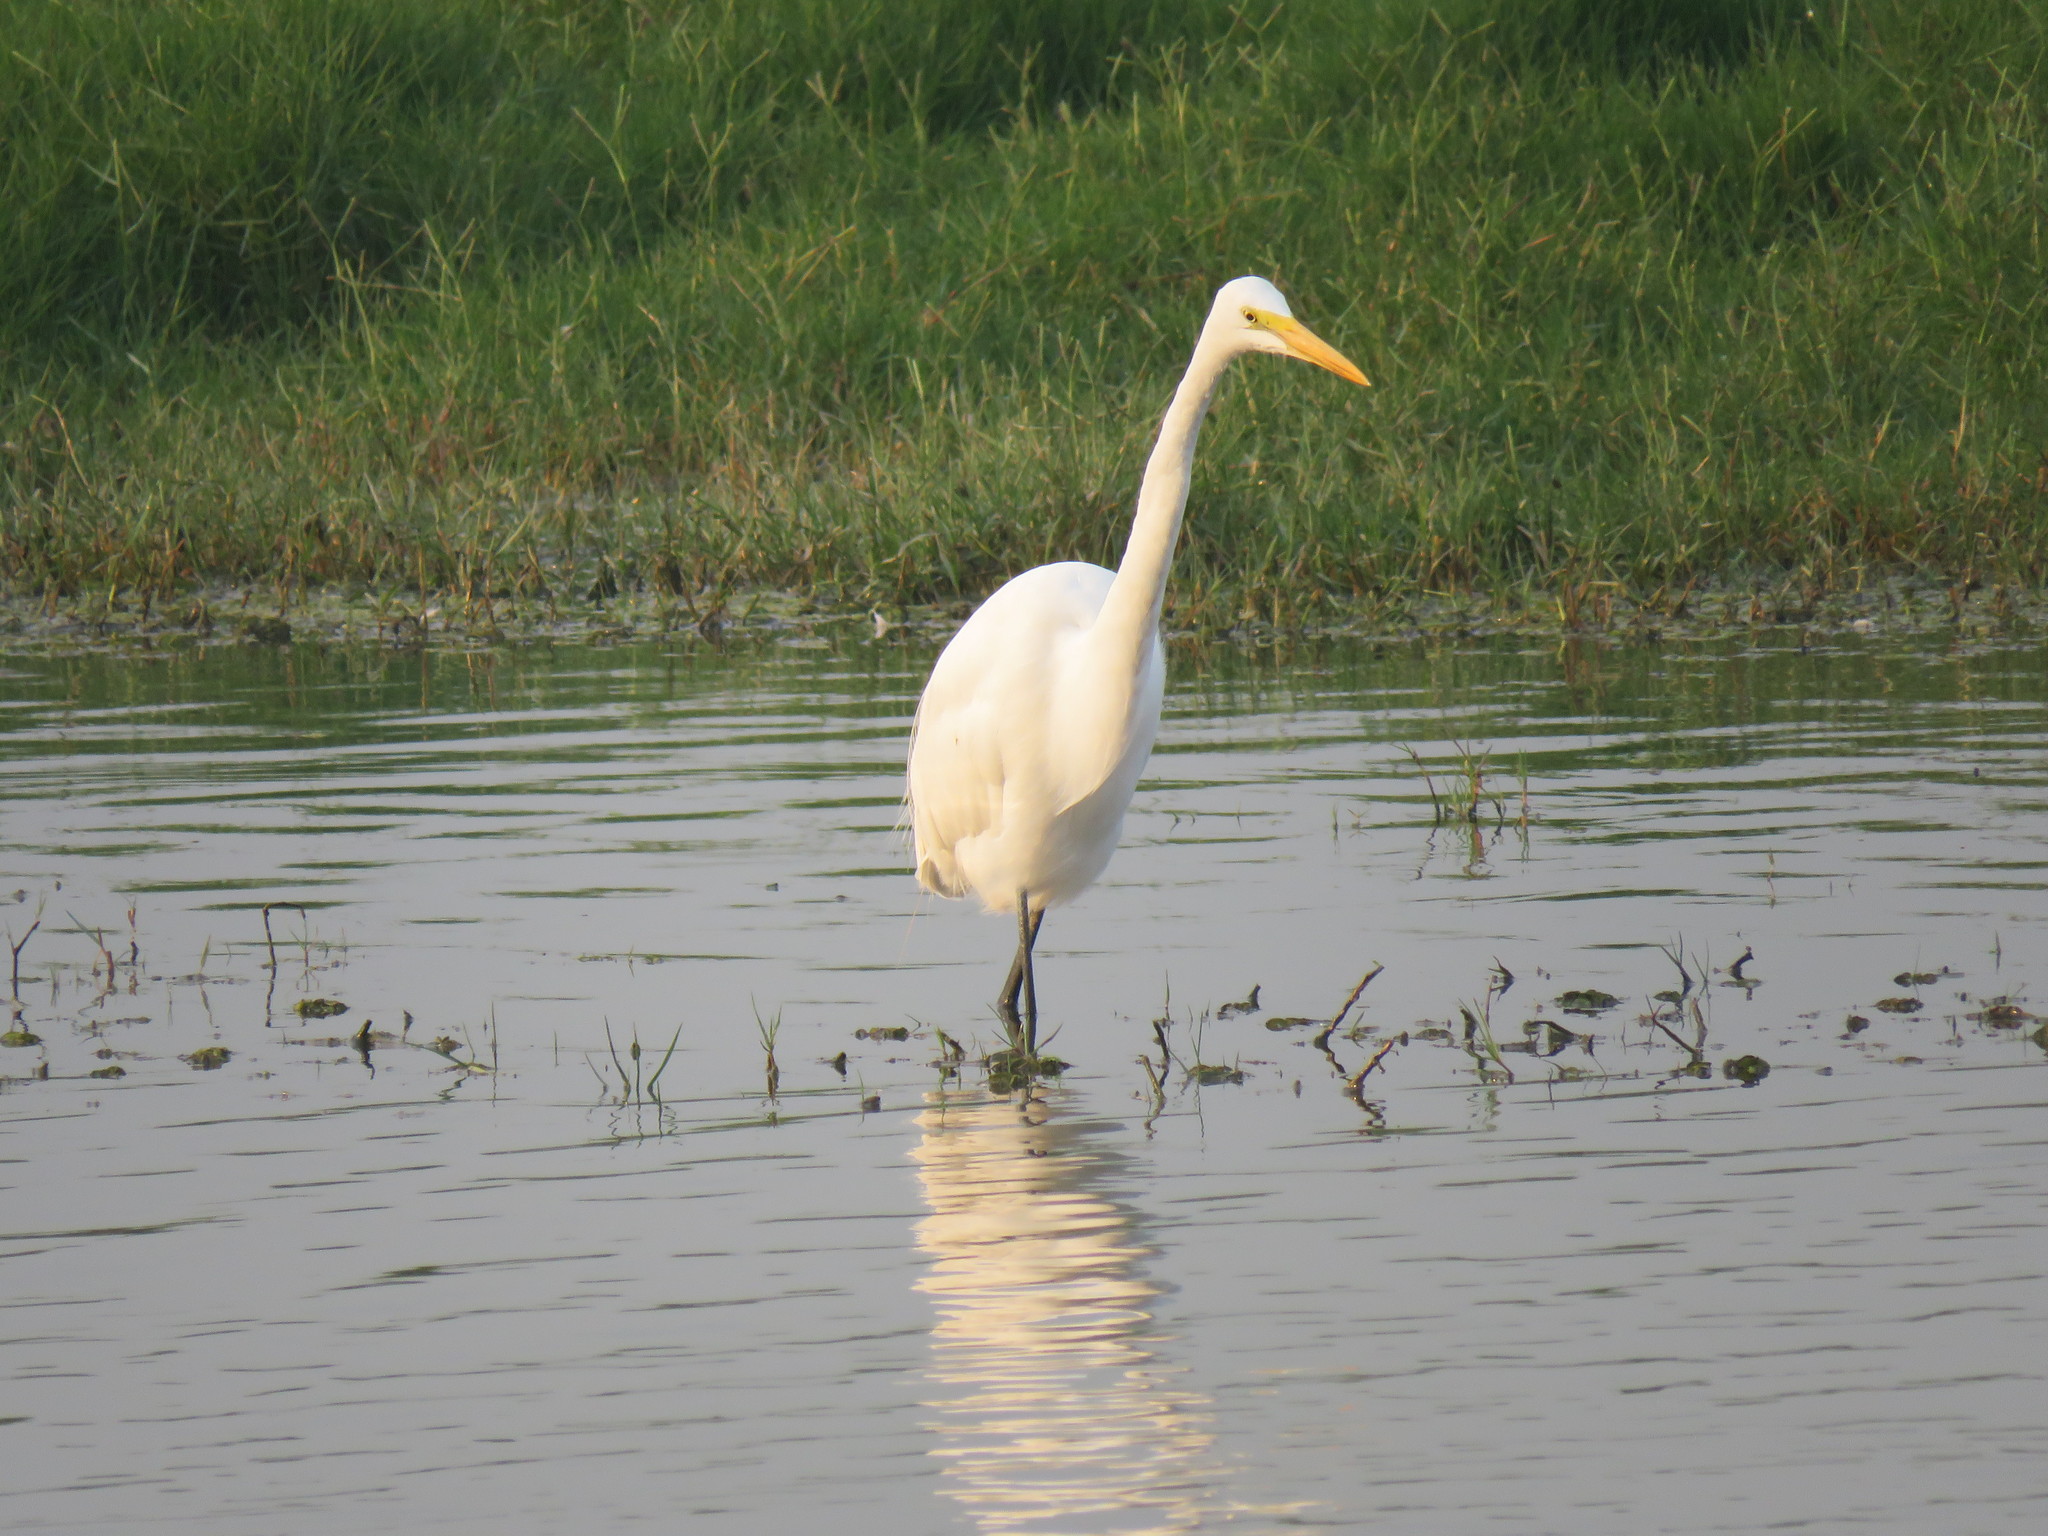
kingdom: Animalia
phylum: Chordata
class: Aves
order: Pelecaniformes
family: Ardeidae
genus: Ardea
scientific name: Ardea alba
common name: Great egret
